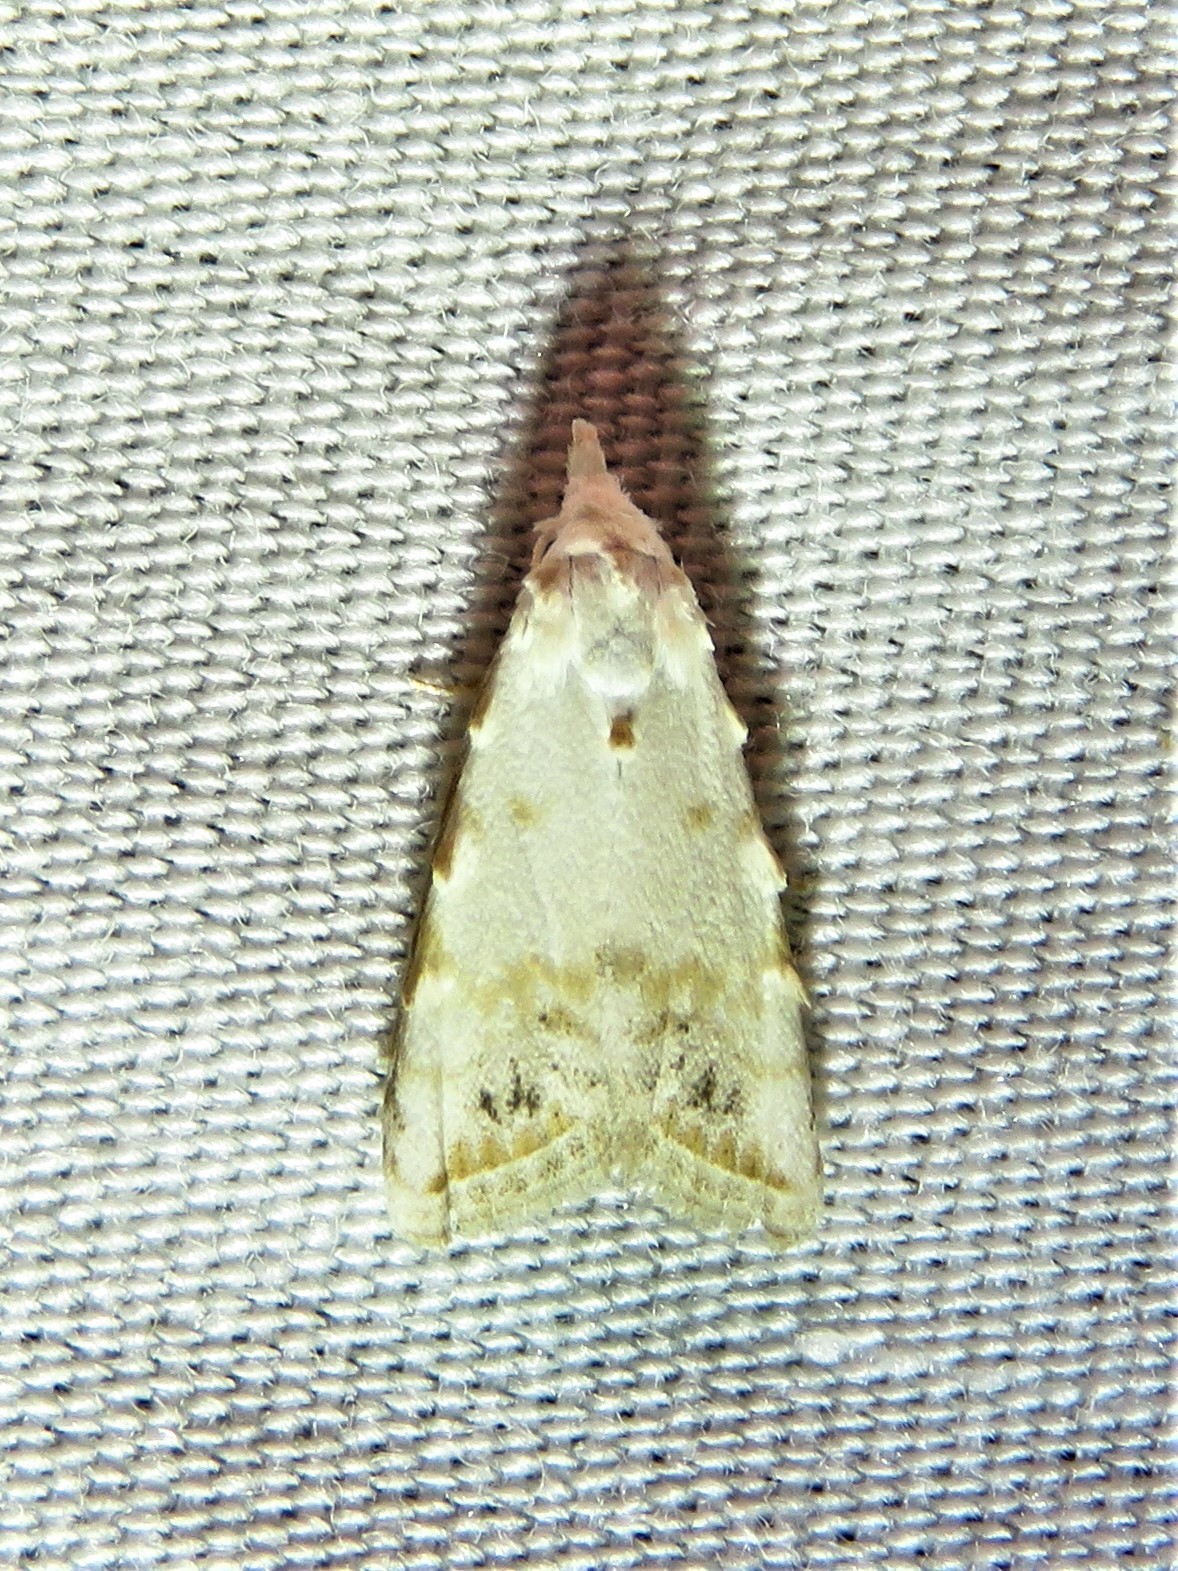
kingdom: Animalia
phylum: Arthropoda
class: Insecta
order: Lepidoptera
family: Nolidae
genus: Nola
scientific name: Nola cereella
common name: Sorghum webworm moth
